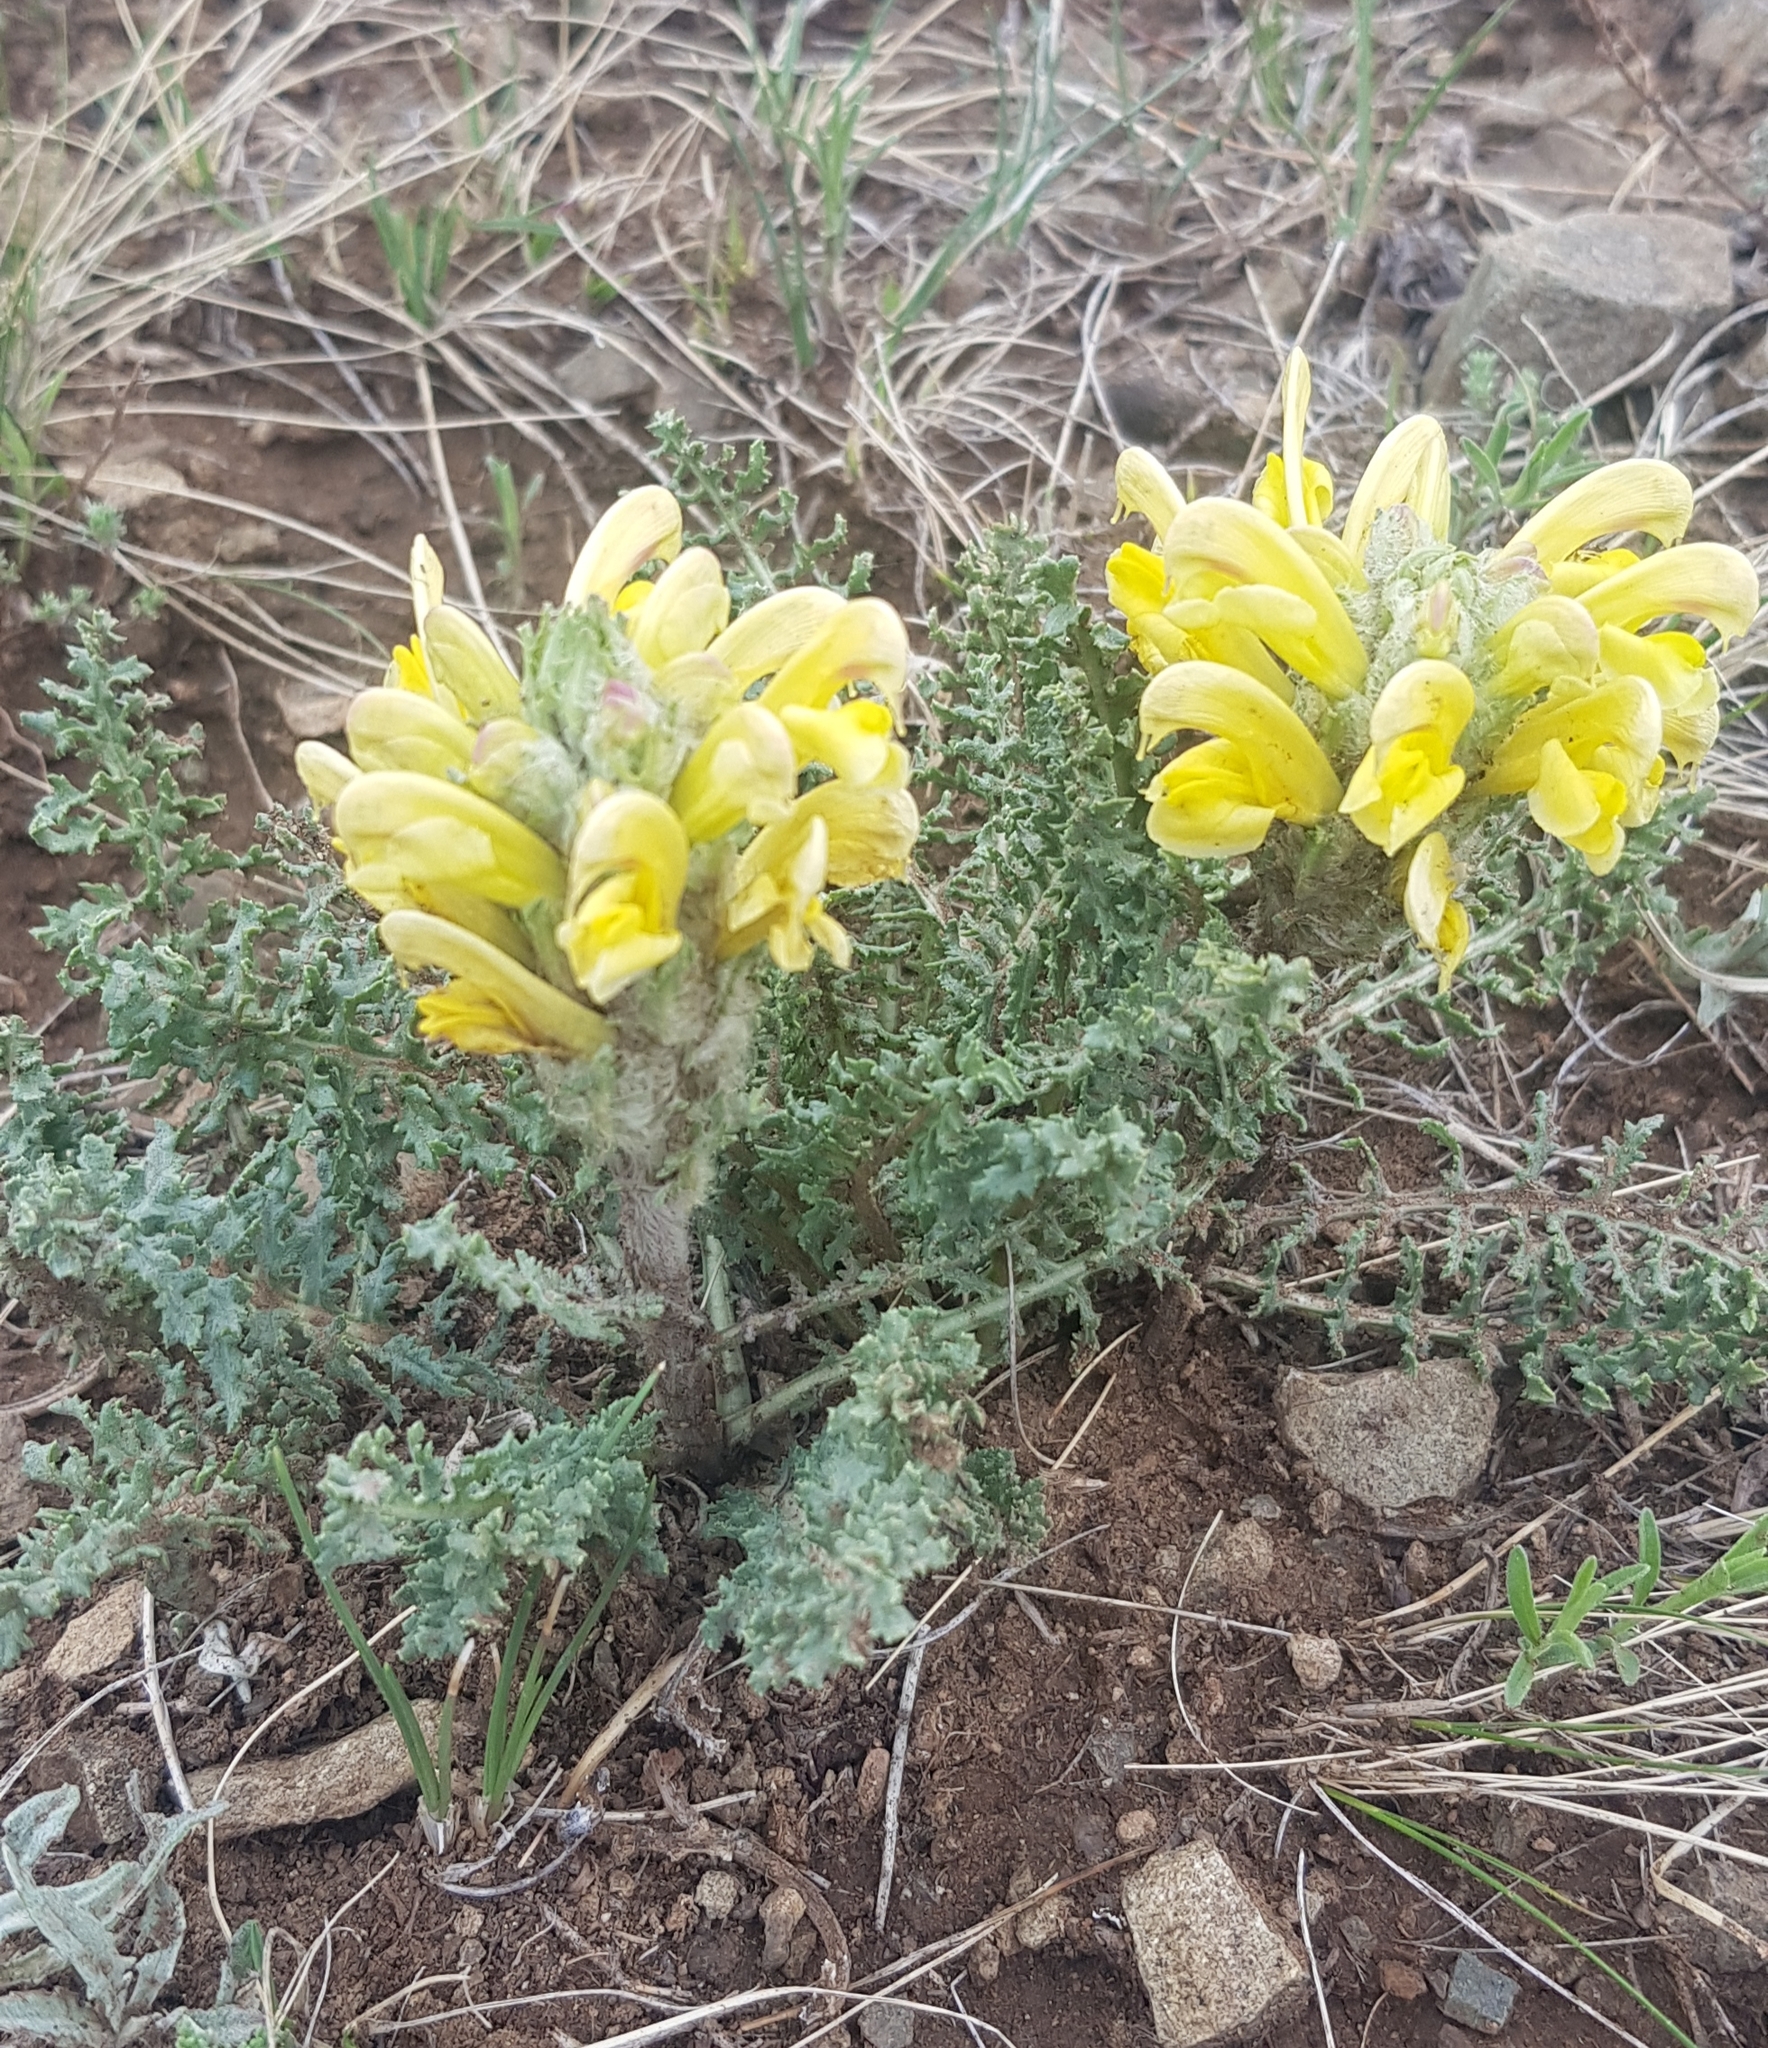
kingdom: Plantae
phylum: Tracheophyta
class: Magnoliopsida
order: Lamiales
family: Orobanchaceae
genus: Pedicularis
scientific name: Pedicularis flava
